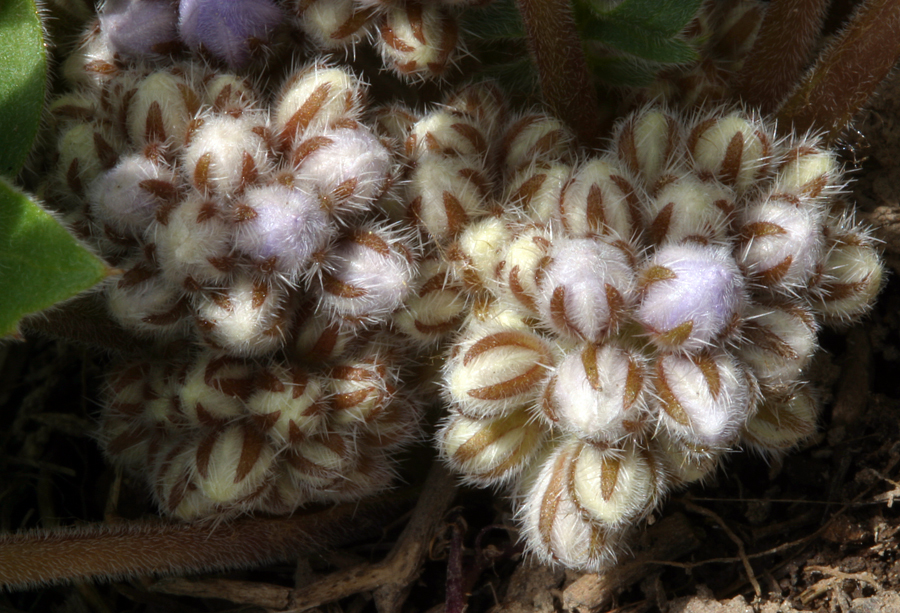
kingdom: Plantae
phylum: Tracheophyta
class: Magnoliopsida
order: Boraginales
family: Hydrophyllaceae
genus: Hydrophyllum
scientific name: Hydrophyllum alpestre
